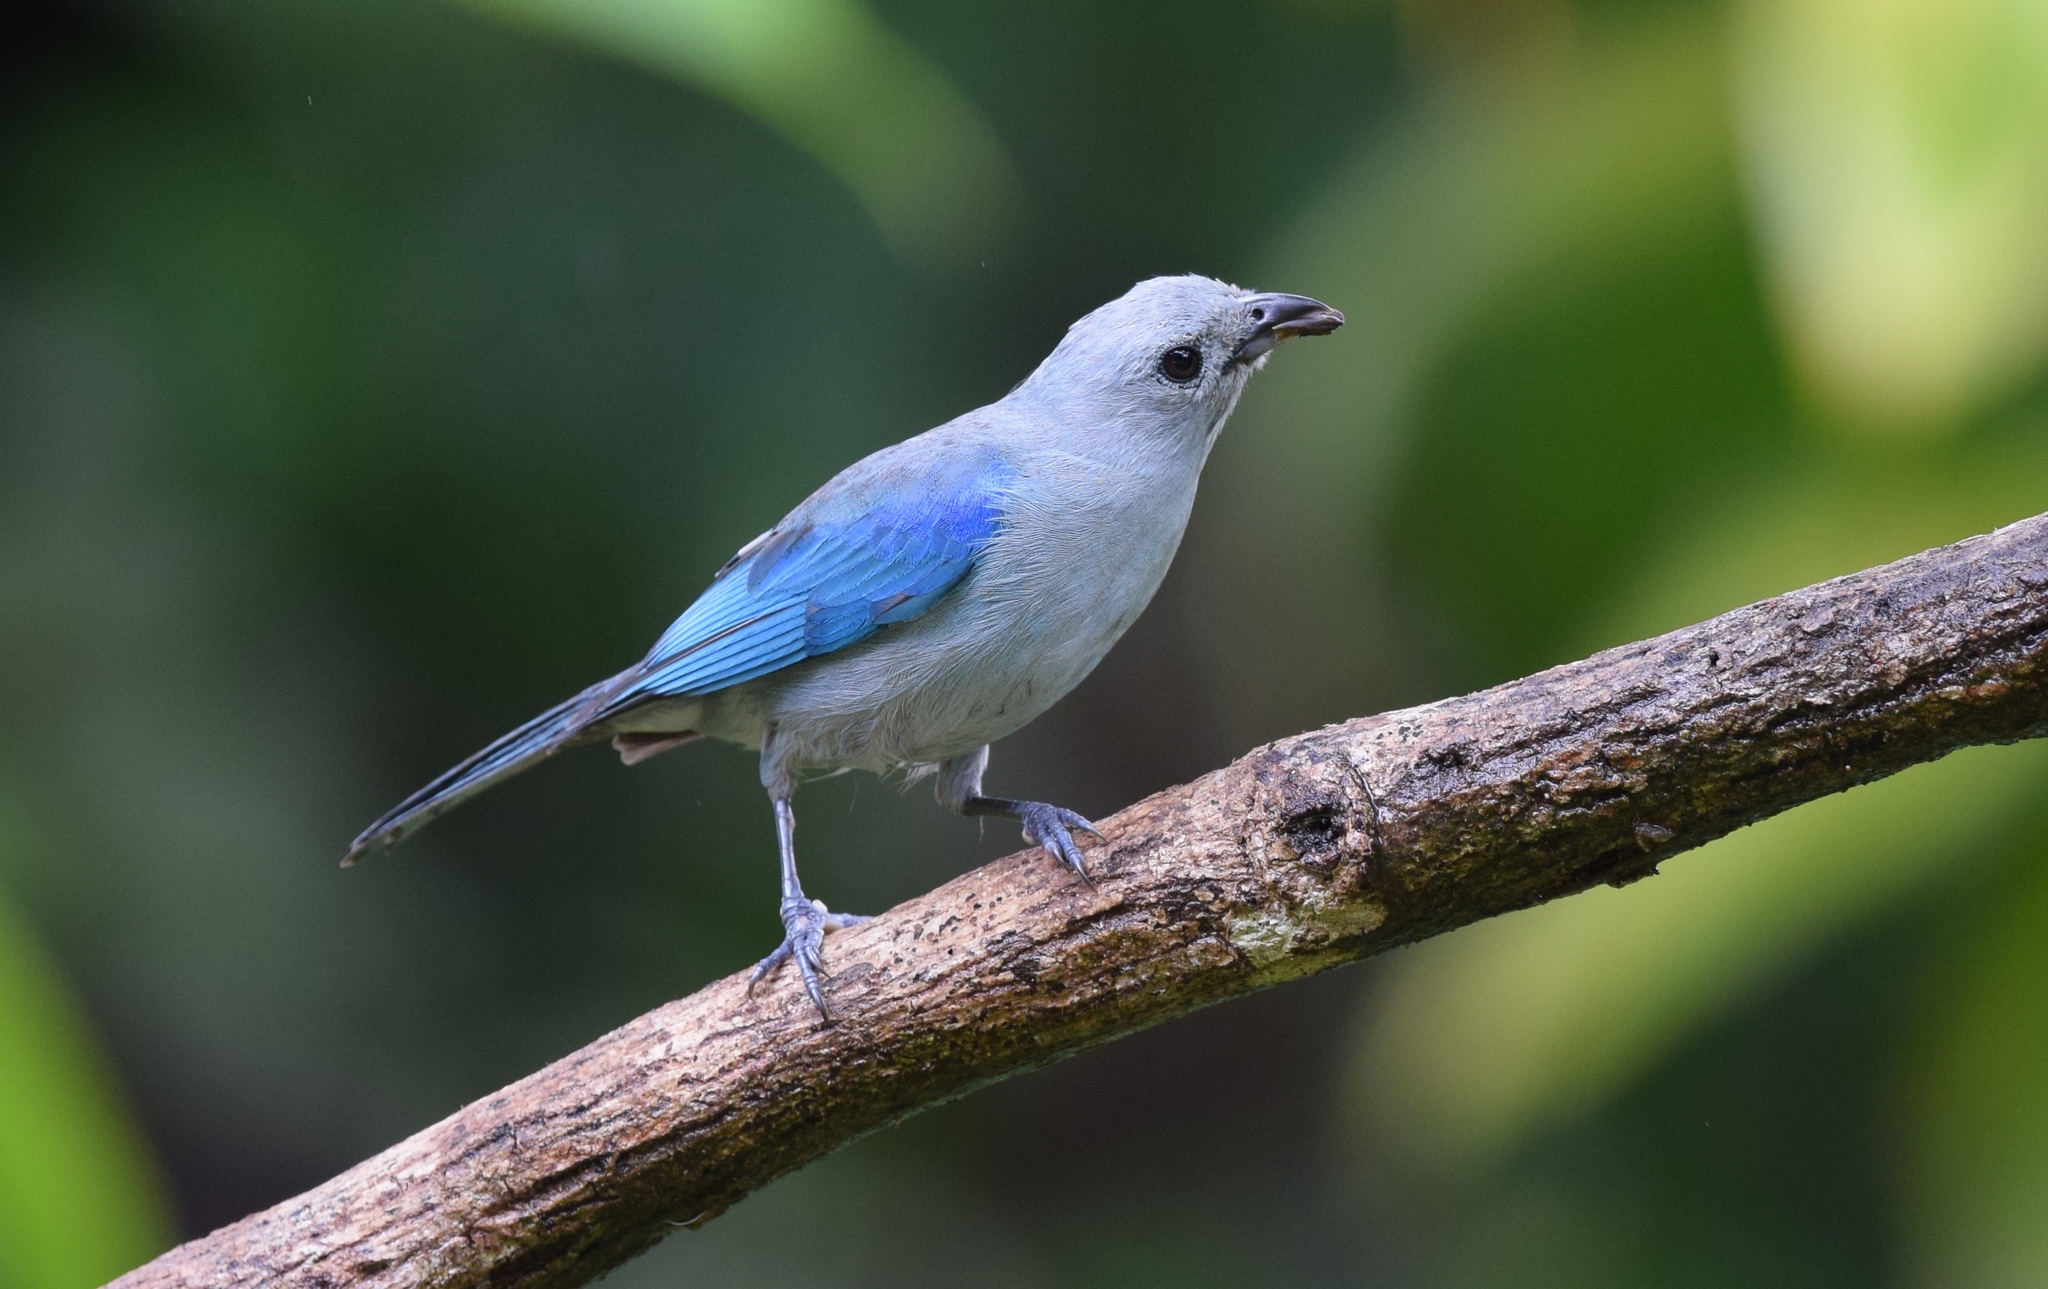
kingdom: Animalia
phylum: Chordata
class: Aves
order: Passeriformes
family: Thraupidae
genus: Thraupis
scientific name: Thraupis episcopus
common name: Blue-grey tanager
